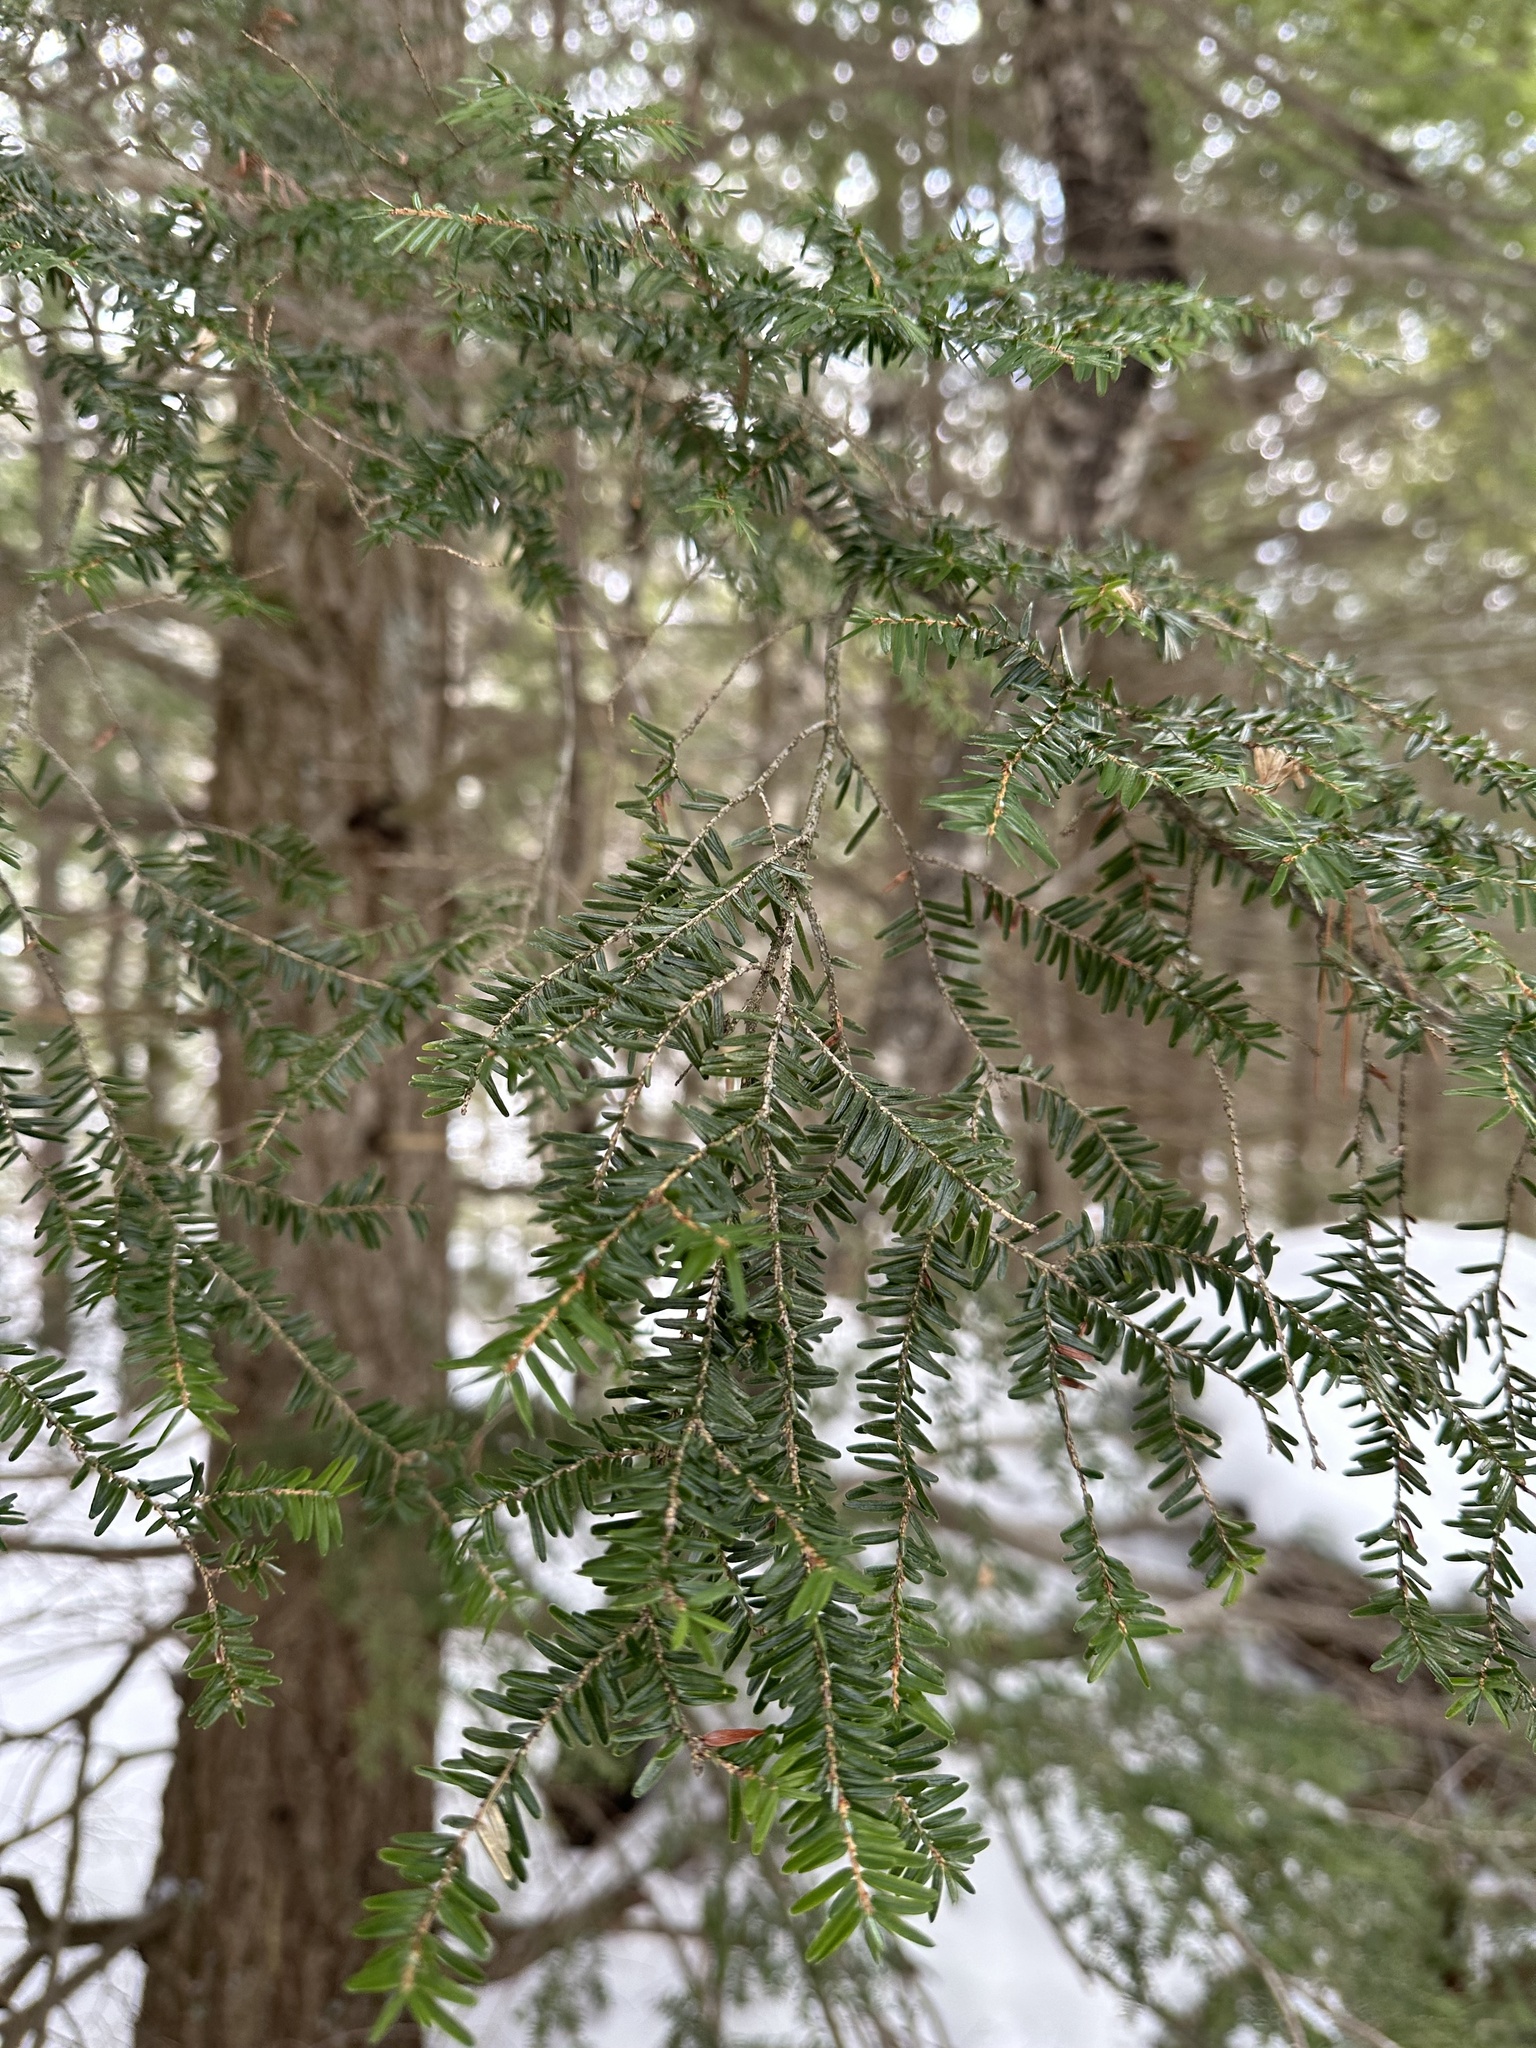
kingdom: Plantae
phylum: Tracheophyta
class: Pinopsida
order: Pinales
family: Pinaceae
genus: Tsuga
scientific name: Tsuga canadensis
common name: Eastern hemlock
